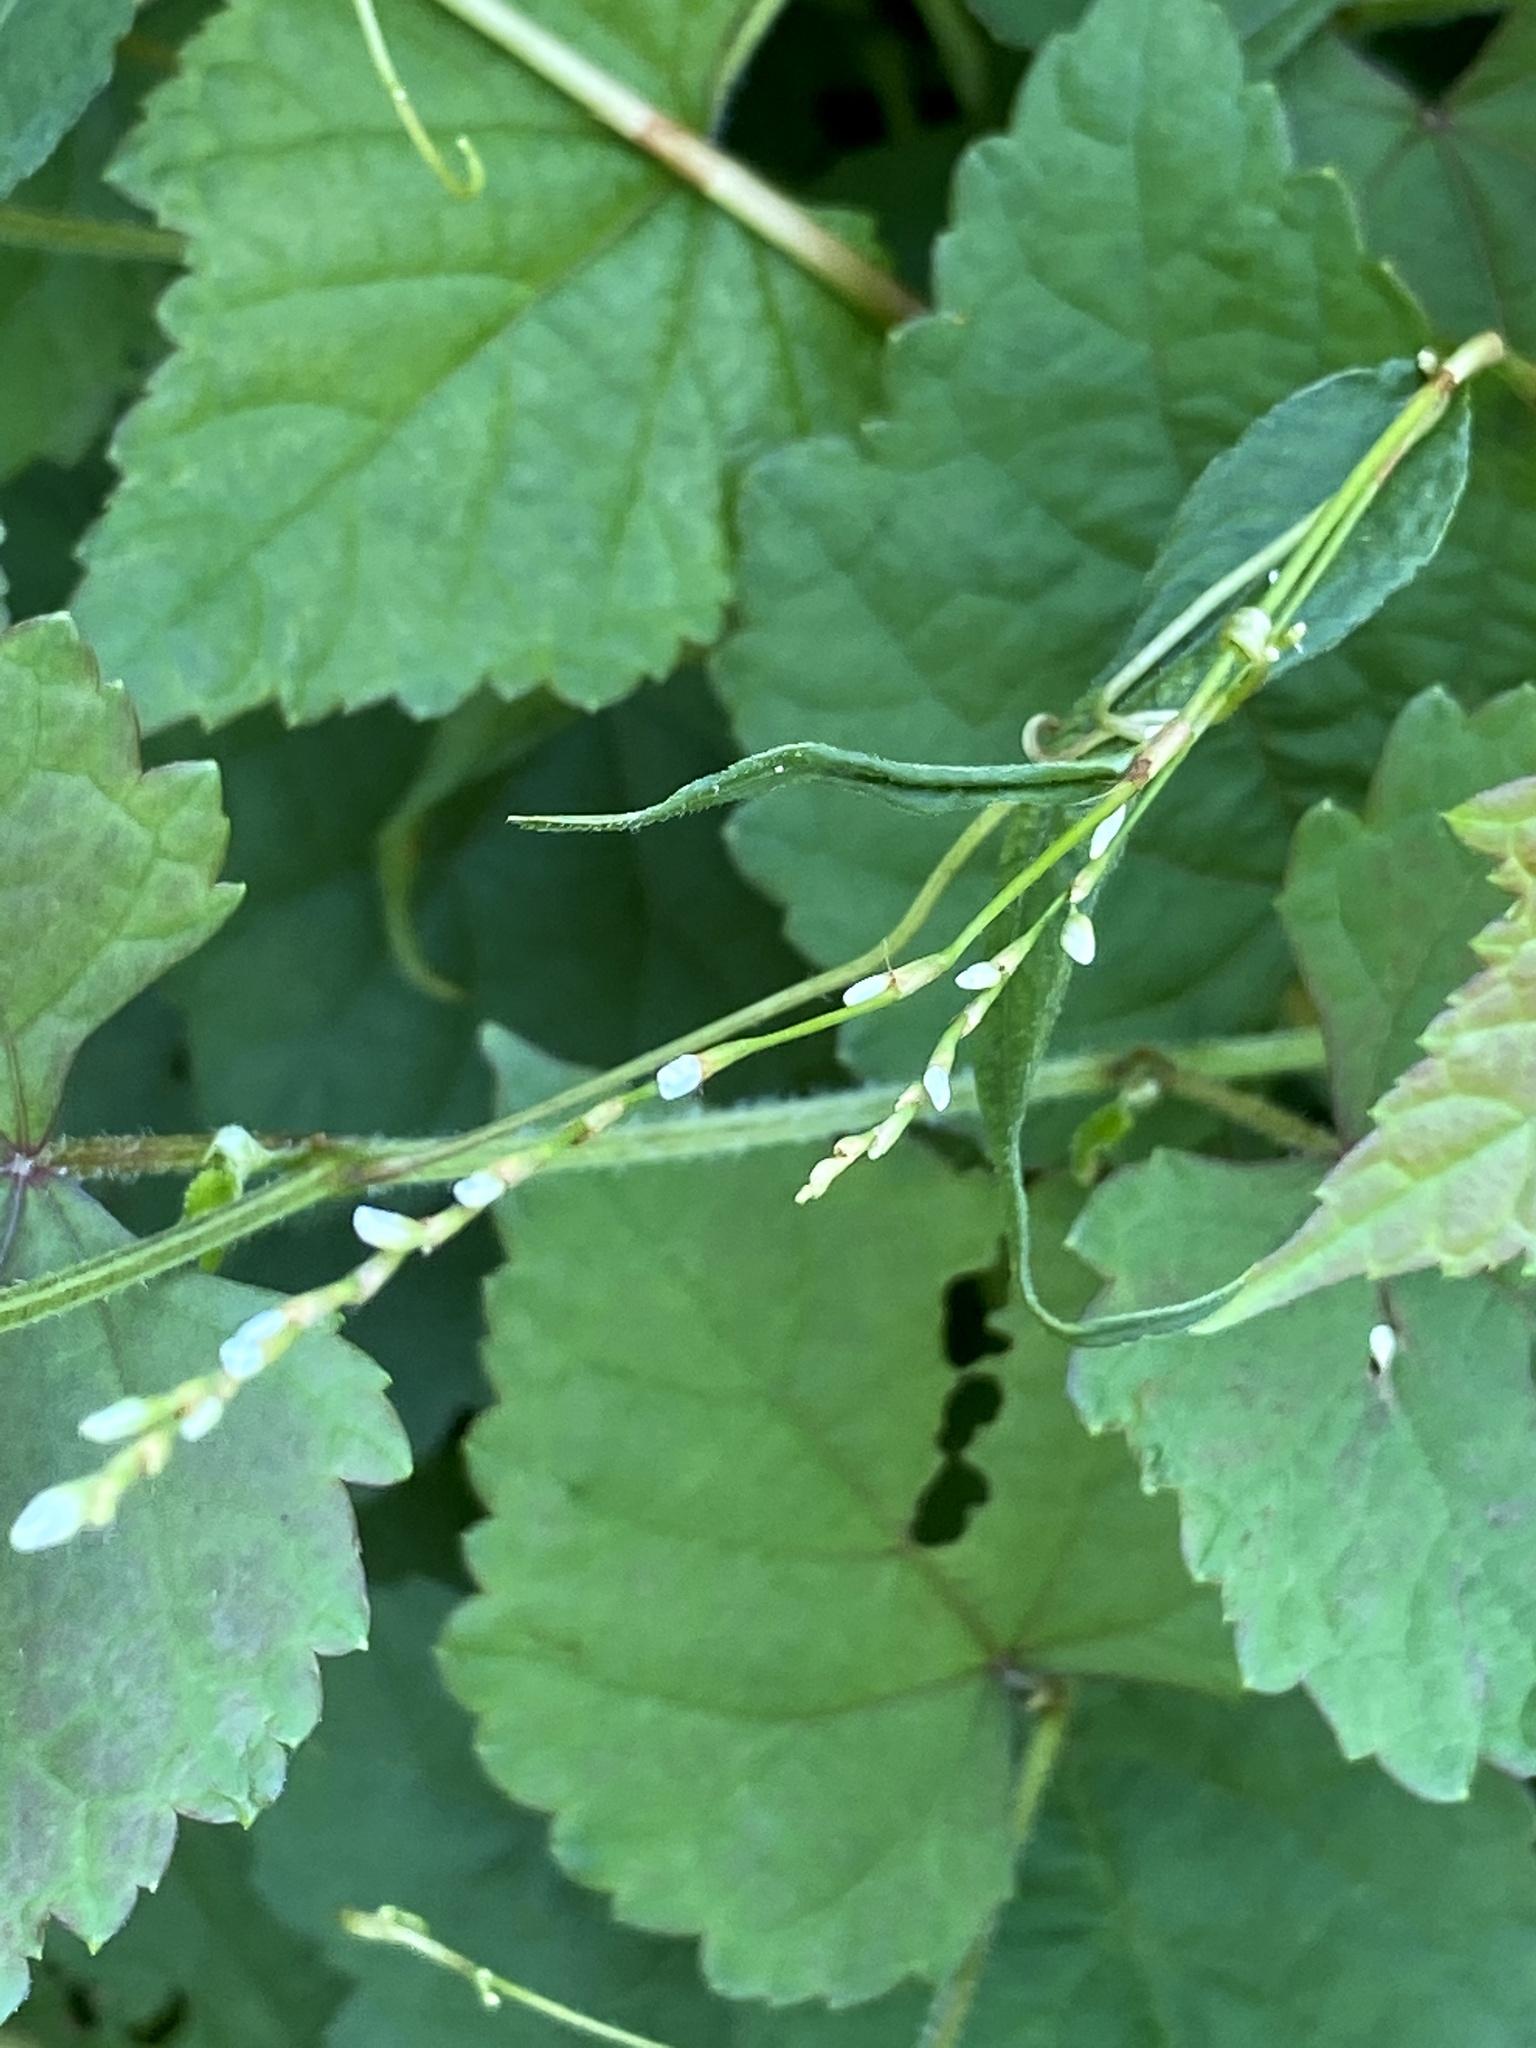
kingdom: Plantae
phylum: Tracheophyta
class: Magnoliopsida
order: Caryophyllales
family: Polygonaceae
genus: Persicaria
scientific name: Persicaria punctata
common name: Dotted smartweed
